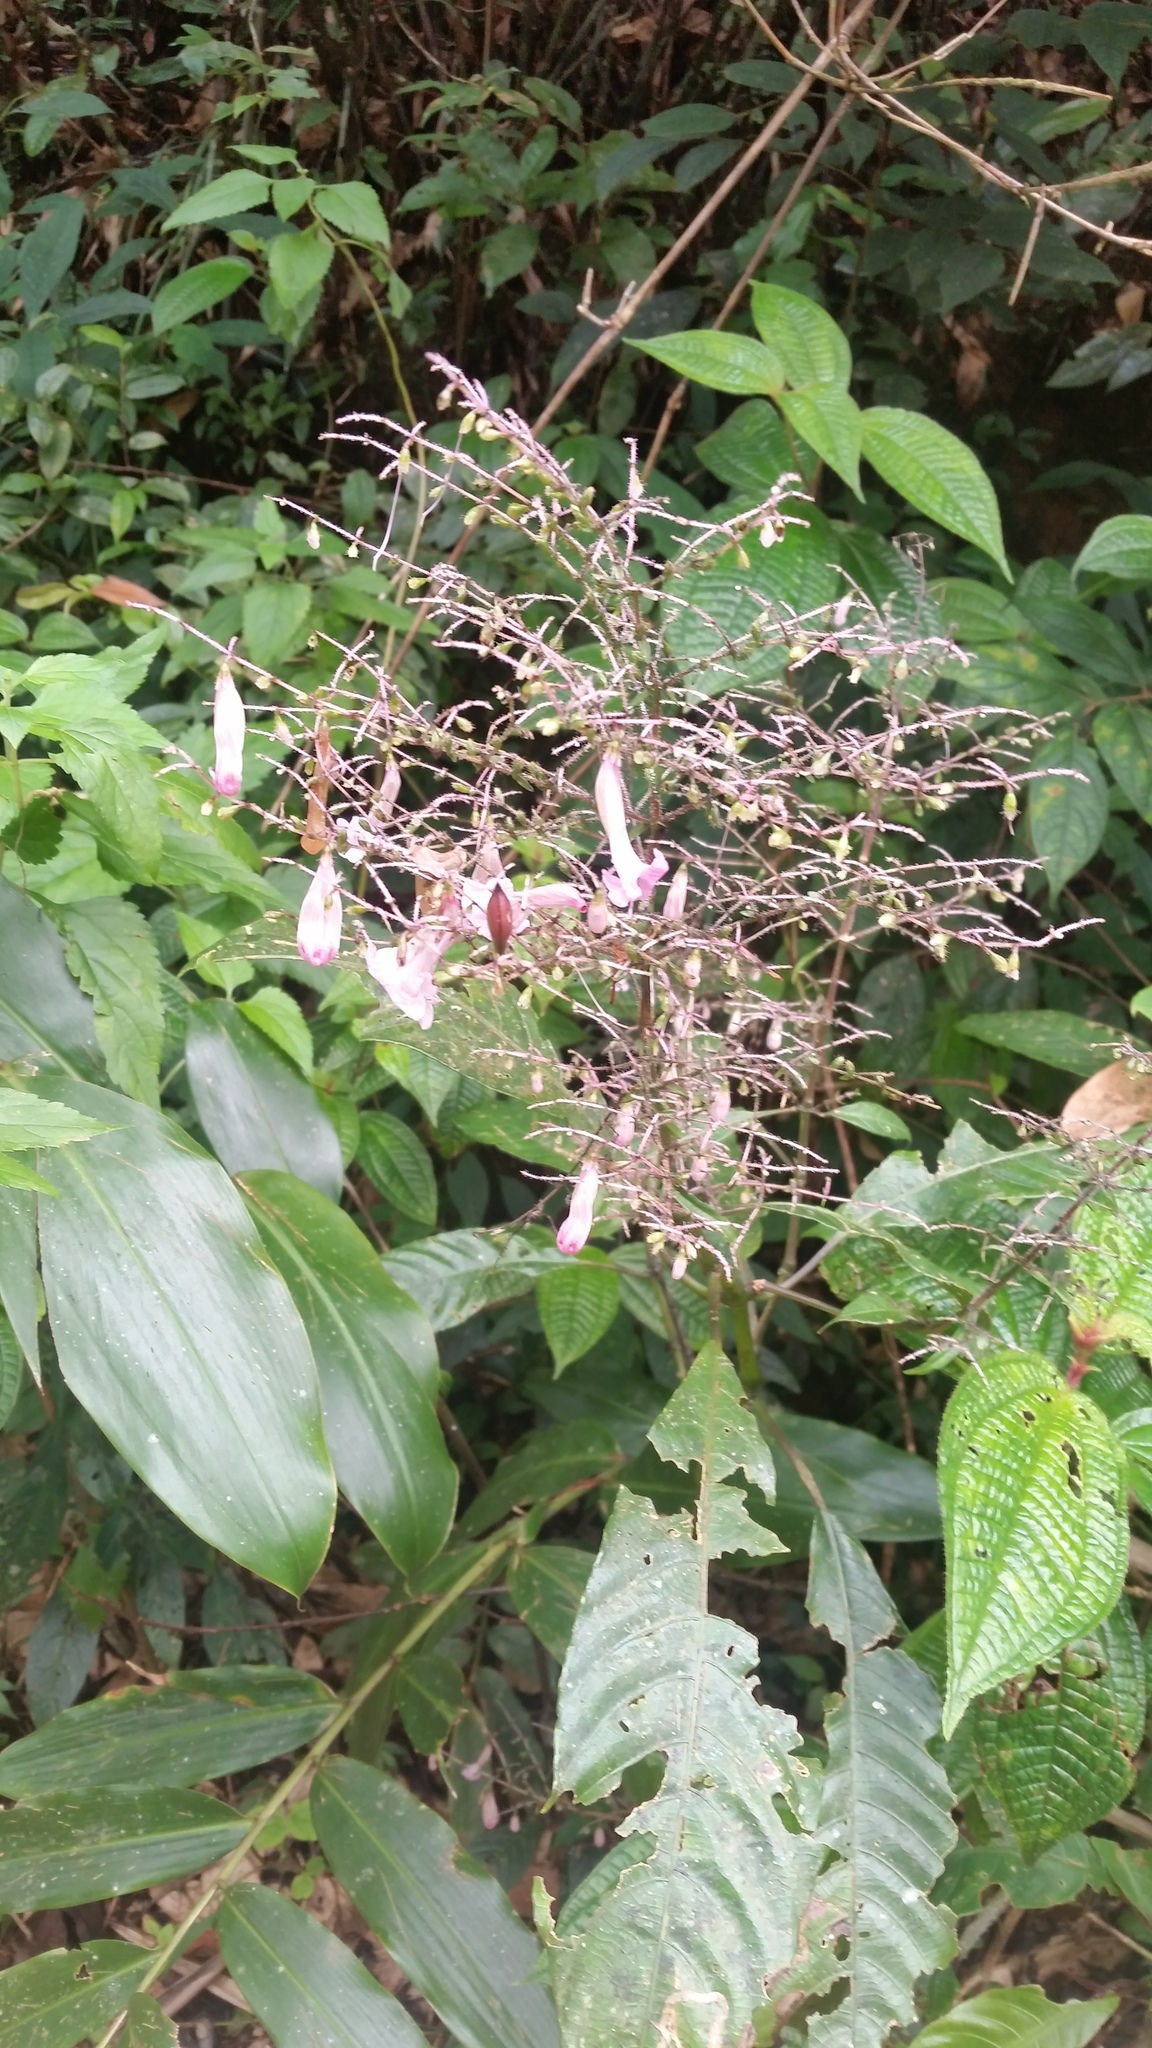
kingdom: Plantae
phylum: Tracheophyta
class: Magnoliopsida
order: Lamiales
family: Acanthaceae
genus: Strobilanthes
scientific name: Strobilanthes habracanthoides
